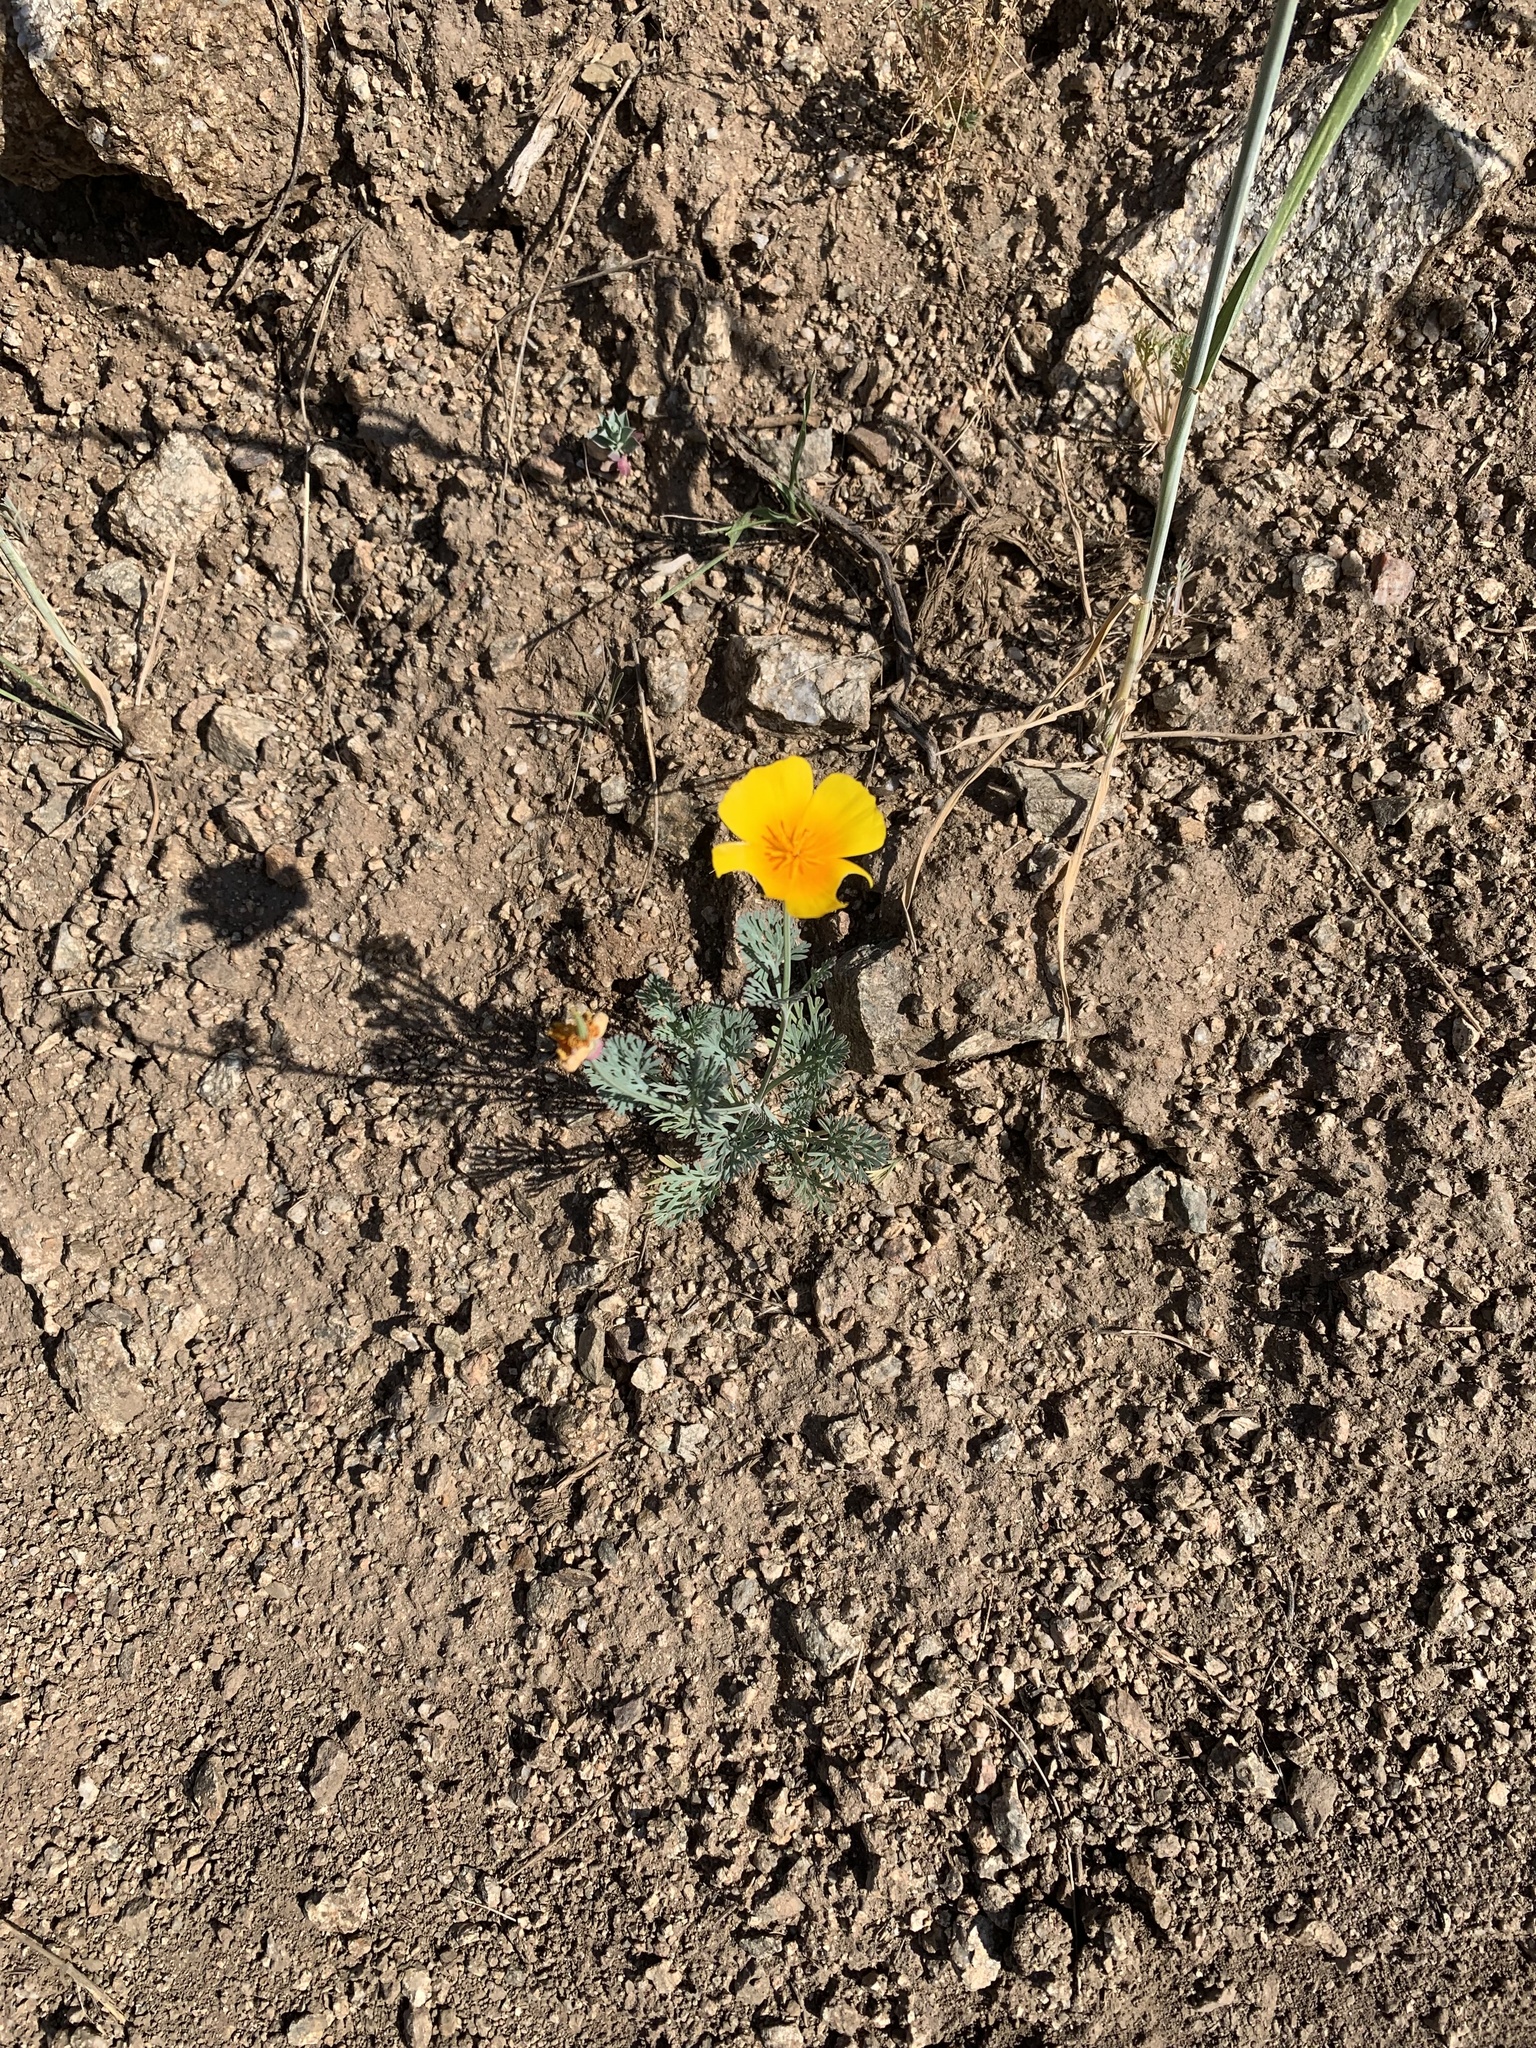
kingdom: Plantae
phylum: Tracheophyta
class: Magnoliopsida
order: Ranunculales
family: Papaveraceae
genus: Eschscholzia
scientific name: Eschscholzia californica
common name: California poppy
